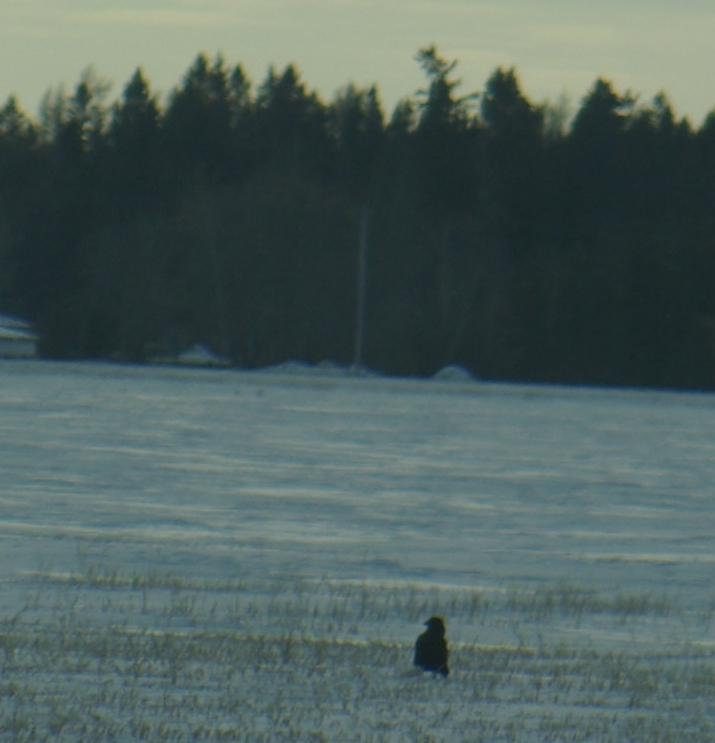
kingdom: Animalia
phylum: Chordata
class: Aves
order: Passeriformes
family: Corvidae
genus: Corvus
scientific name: Corvus corax
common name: Common raven
